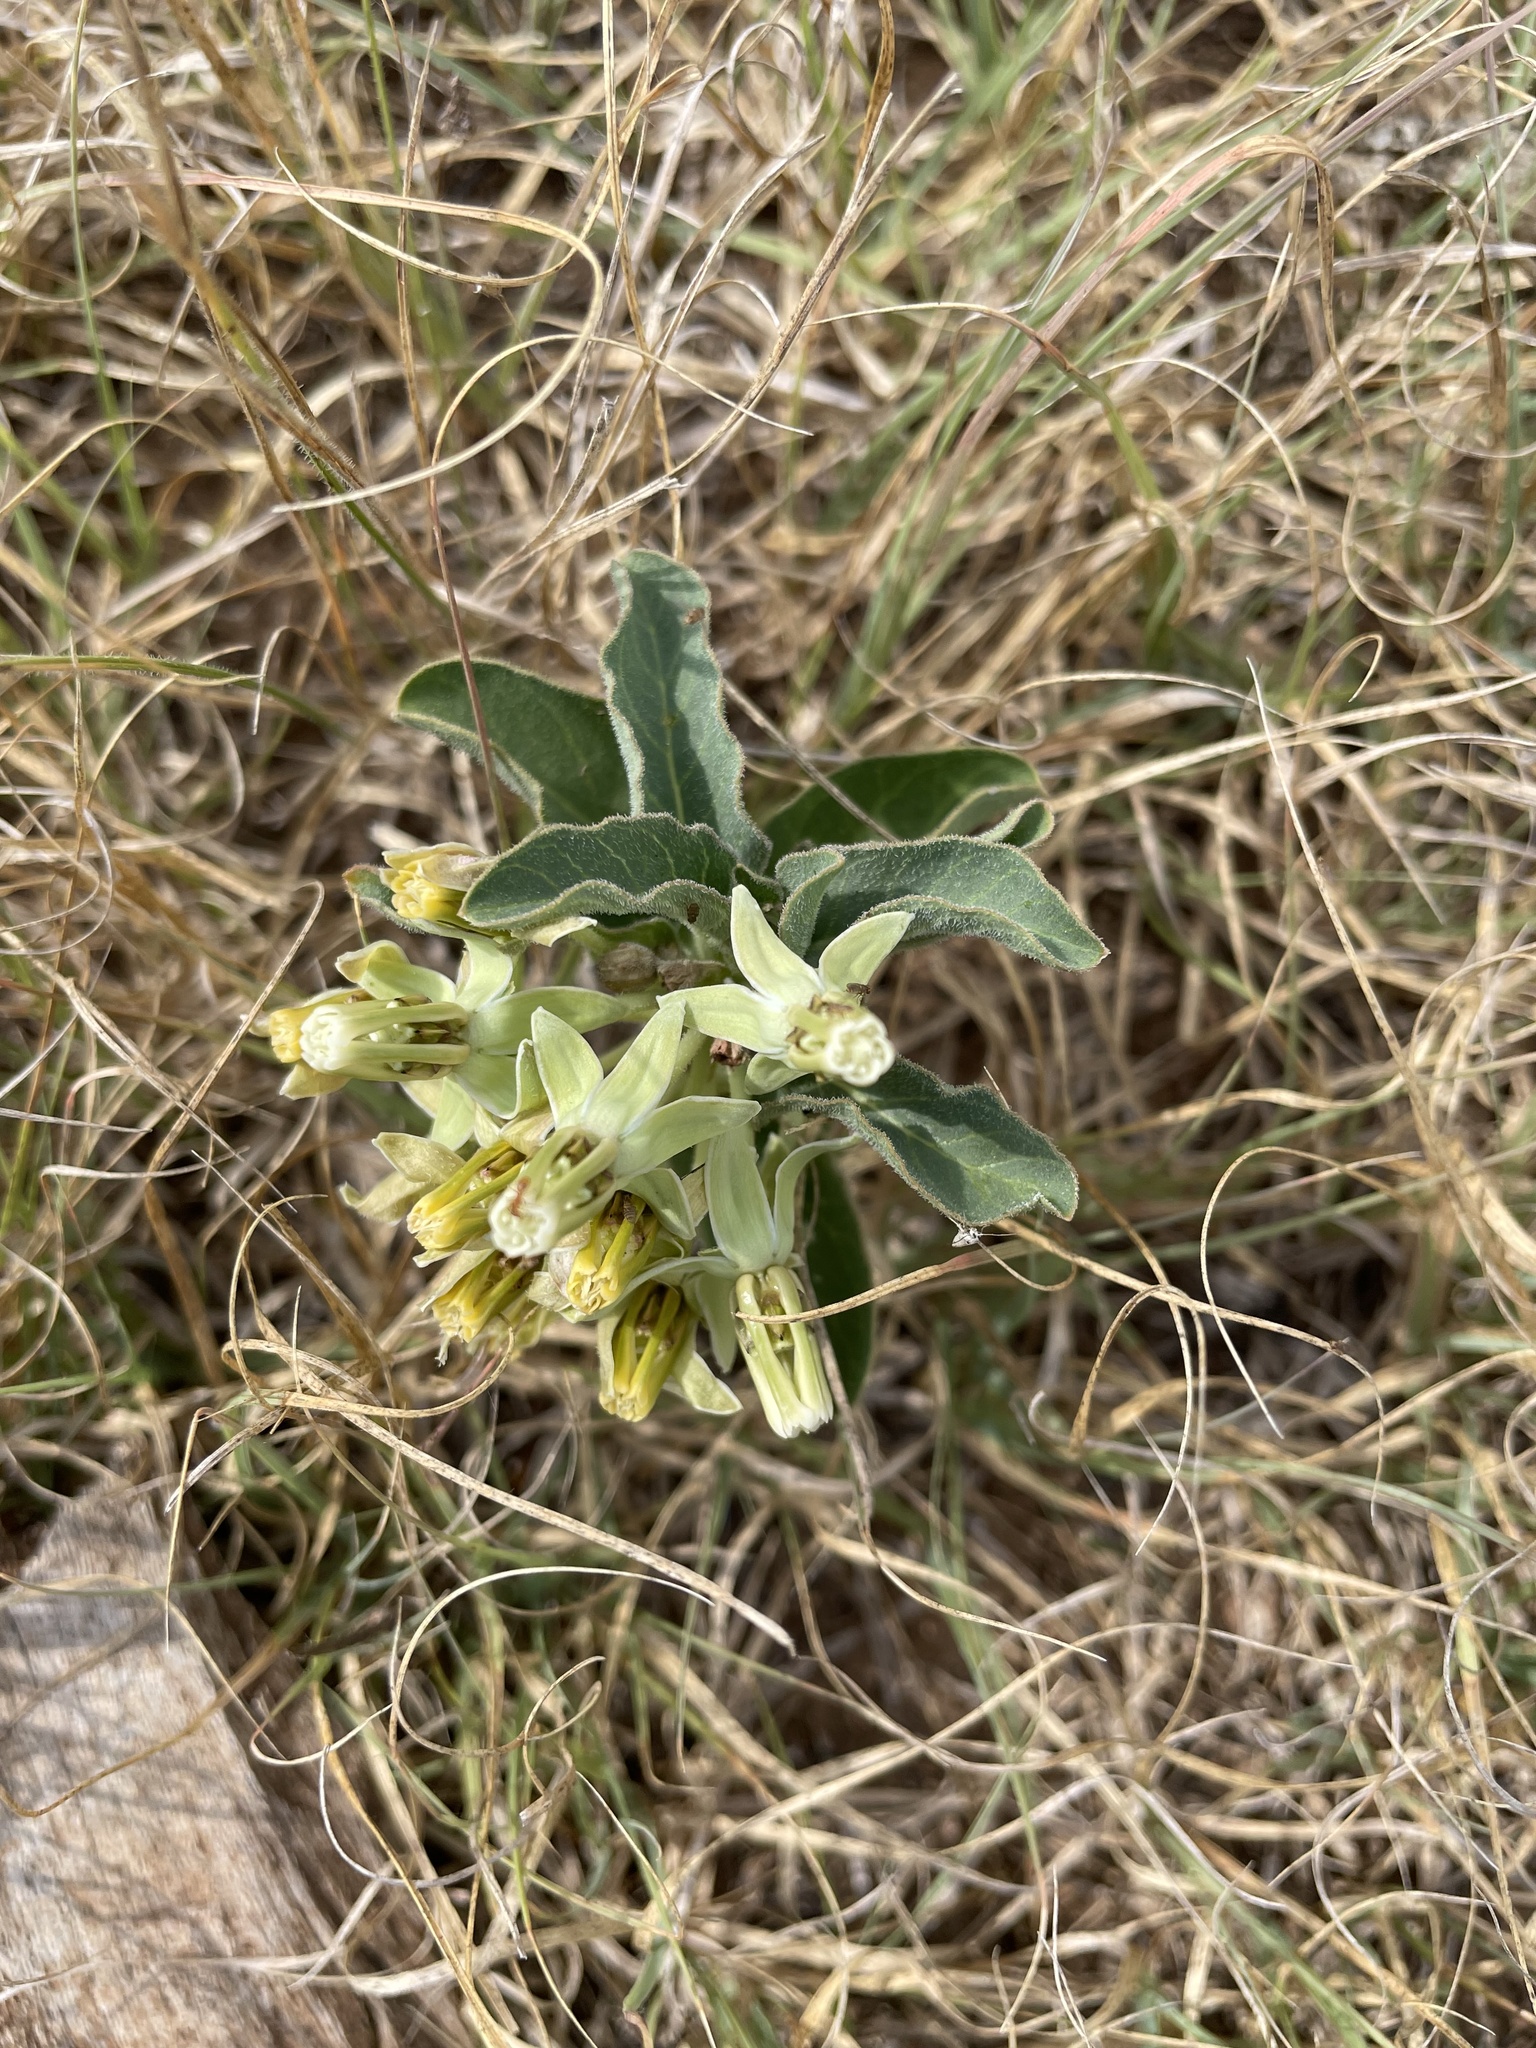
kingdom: Plantae
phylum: Tracheophyta
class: Magnoliopsida
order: Gentianales
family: Apocynaceae
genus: Asclepias
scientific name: Asclepias oenotheroides
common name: Zizotes milkweed
